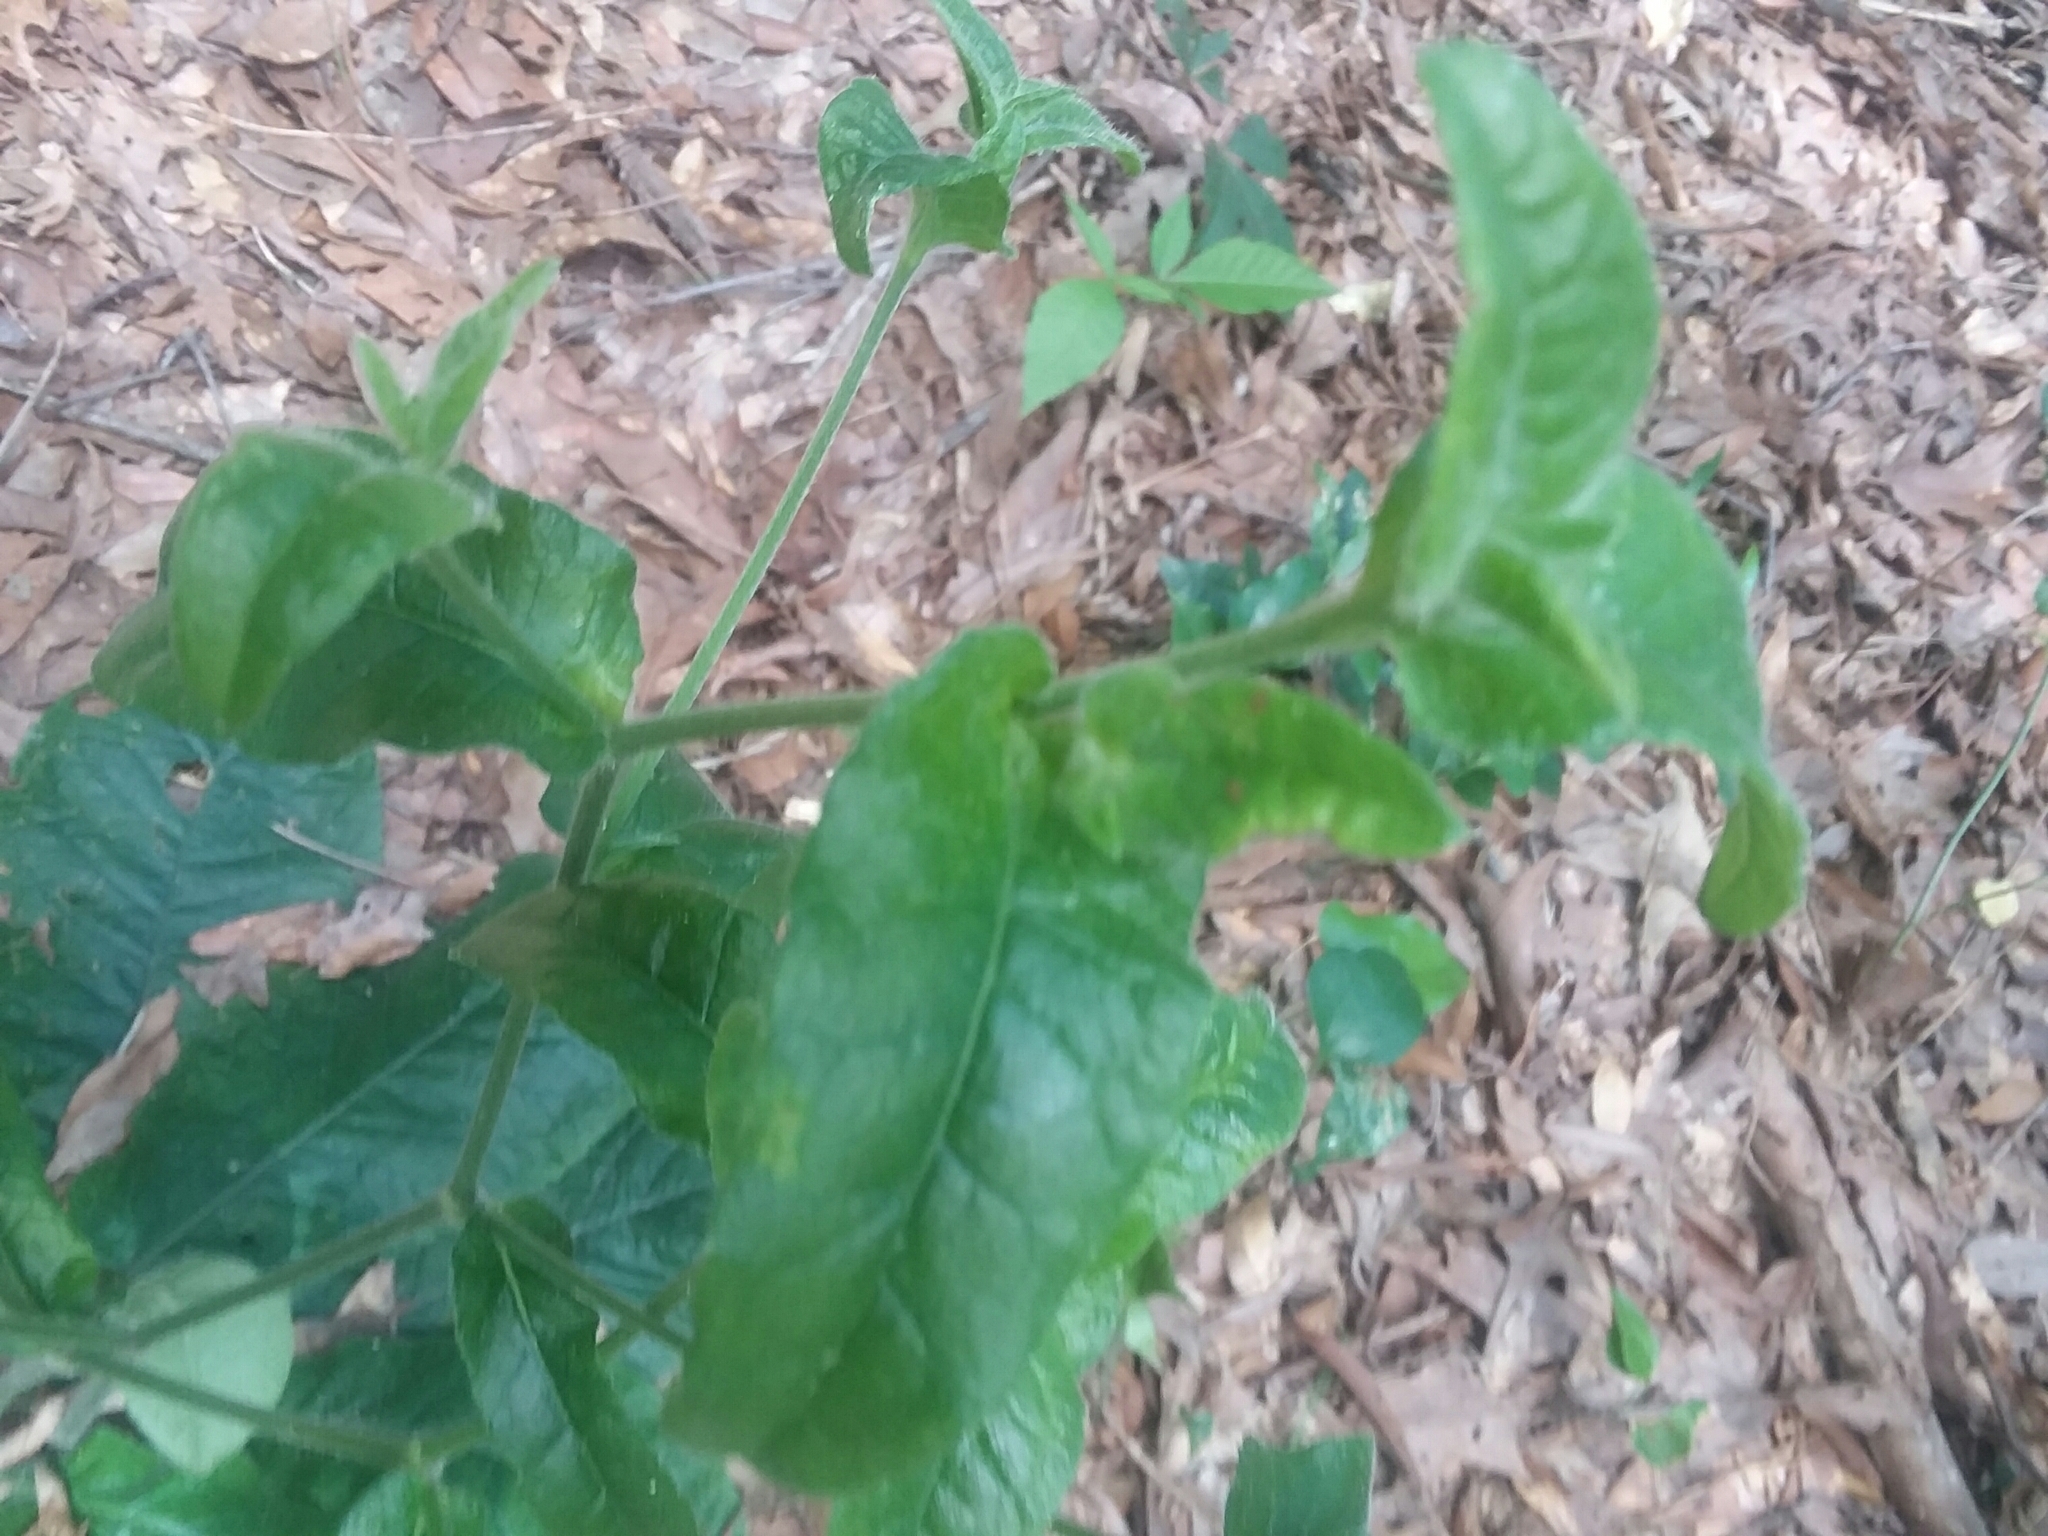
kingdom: Plantae
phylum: Tracheophyta
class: Magnoliopsida
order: Asterales
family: Asteraceae
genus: Elephantopus
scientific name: Elephantopus tomentosus
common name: Tobacco-weed
